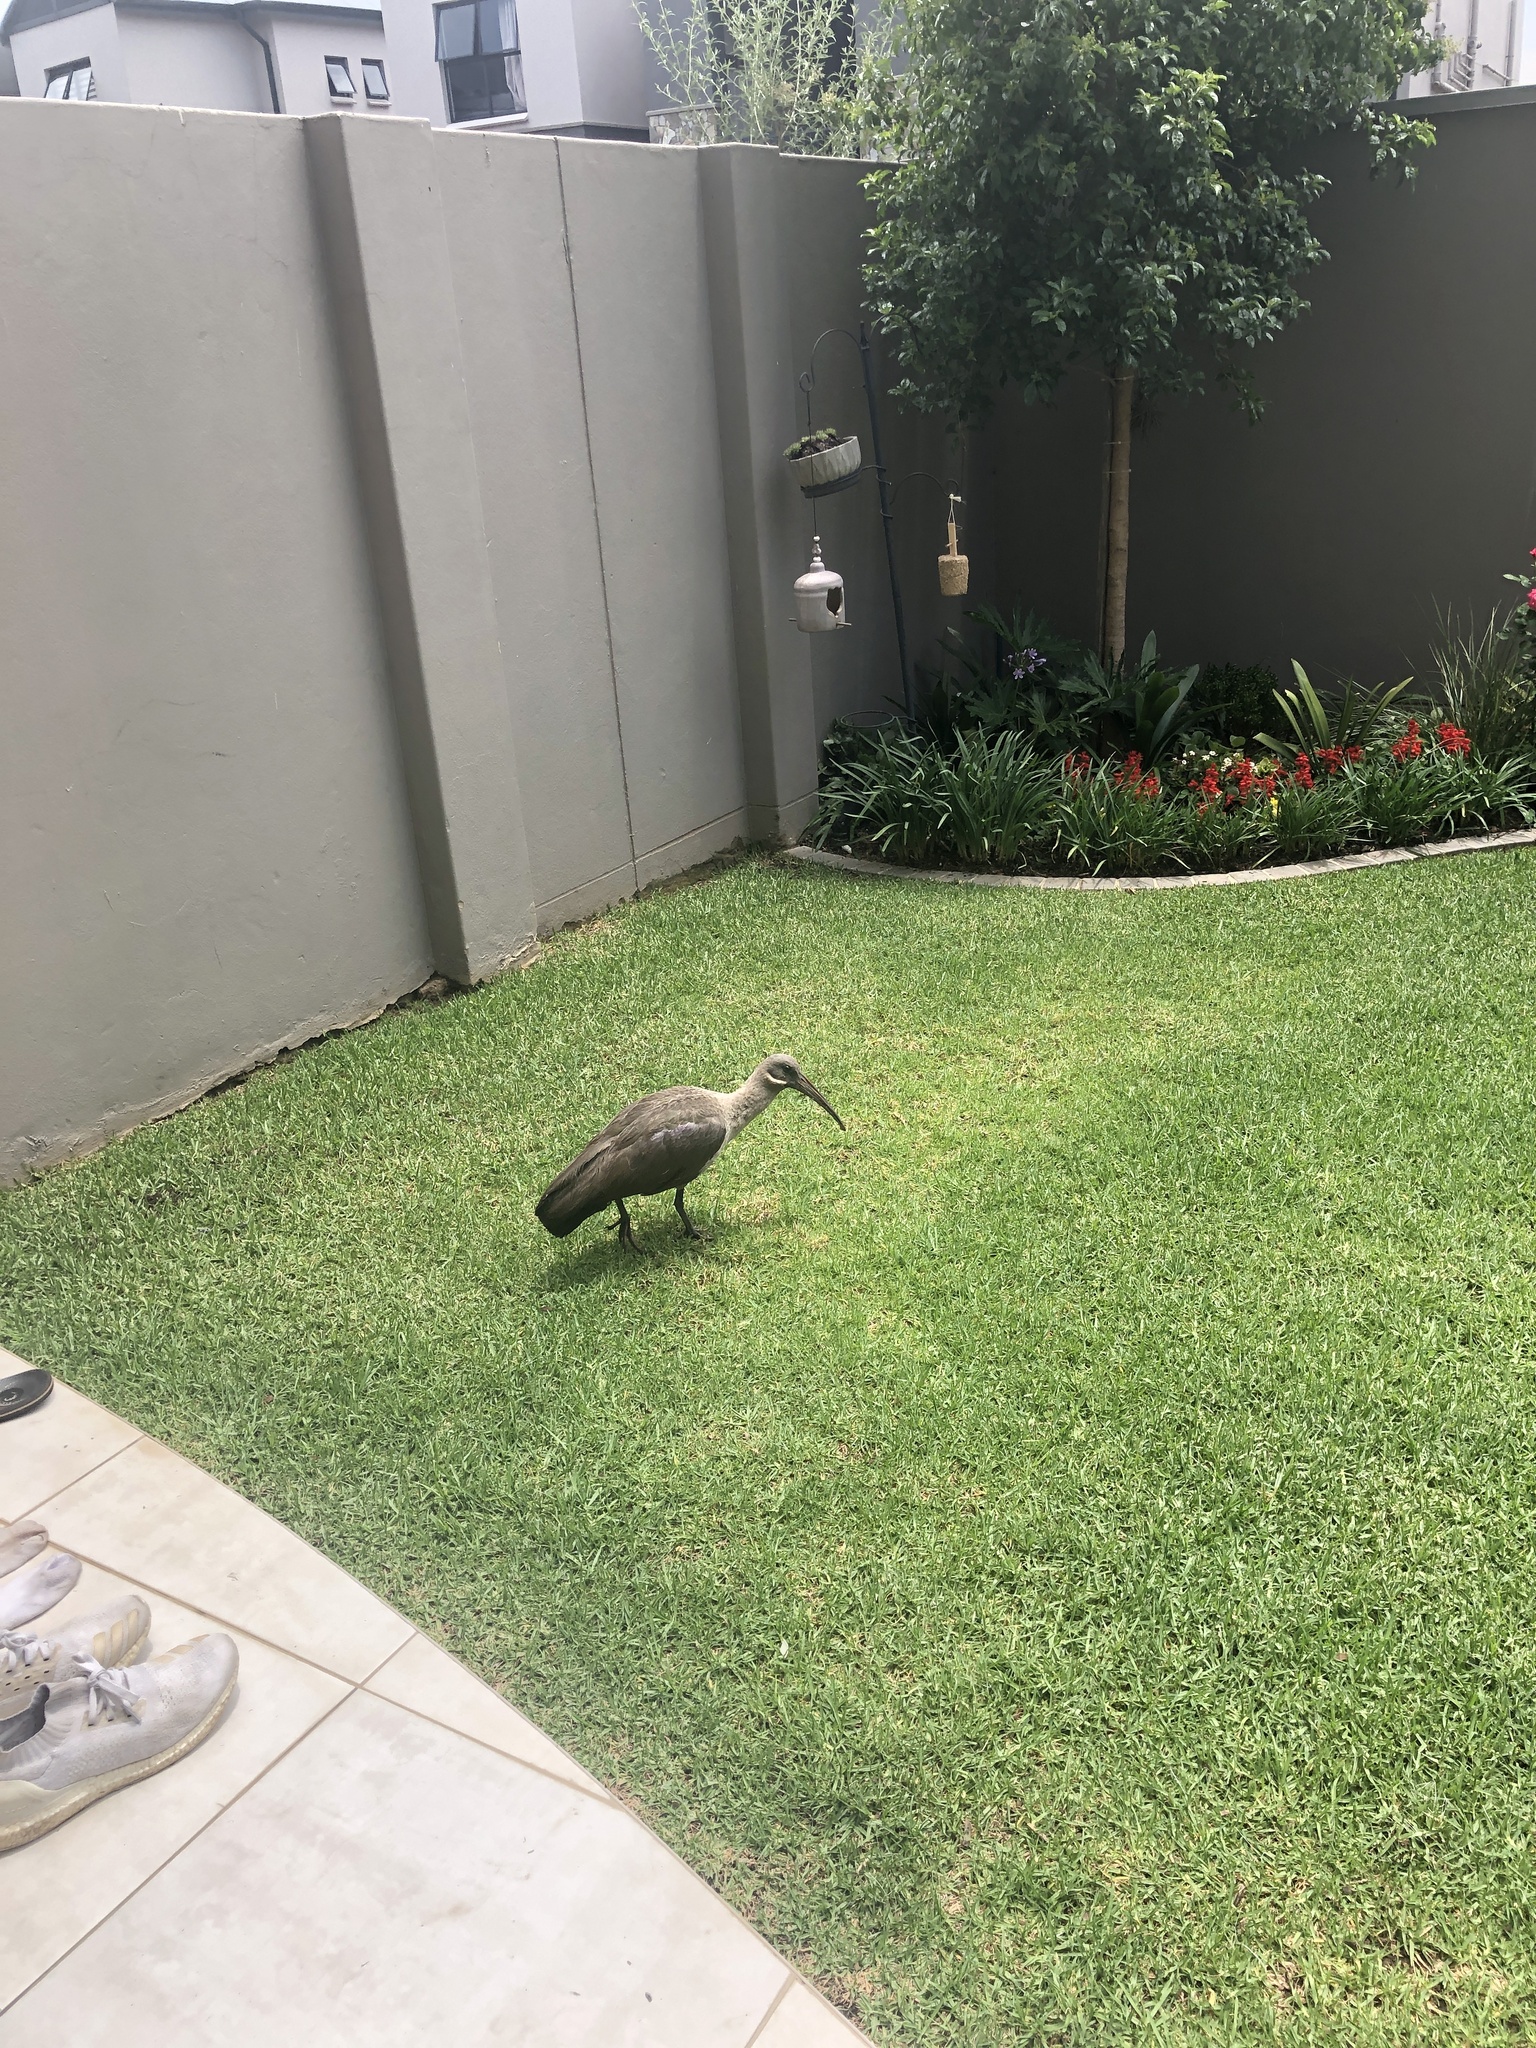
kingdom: Animalia
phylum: Chordata
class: Aves
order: Pelecaniformes
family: Threskiornithidae
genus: Bostrychia
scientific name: Bostrychia hagedash
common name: Hadada ibis
